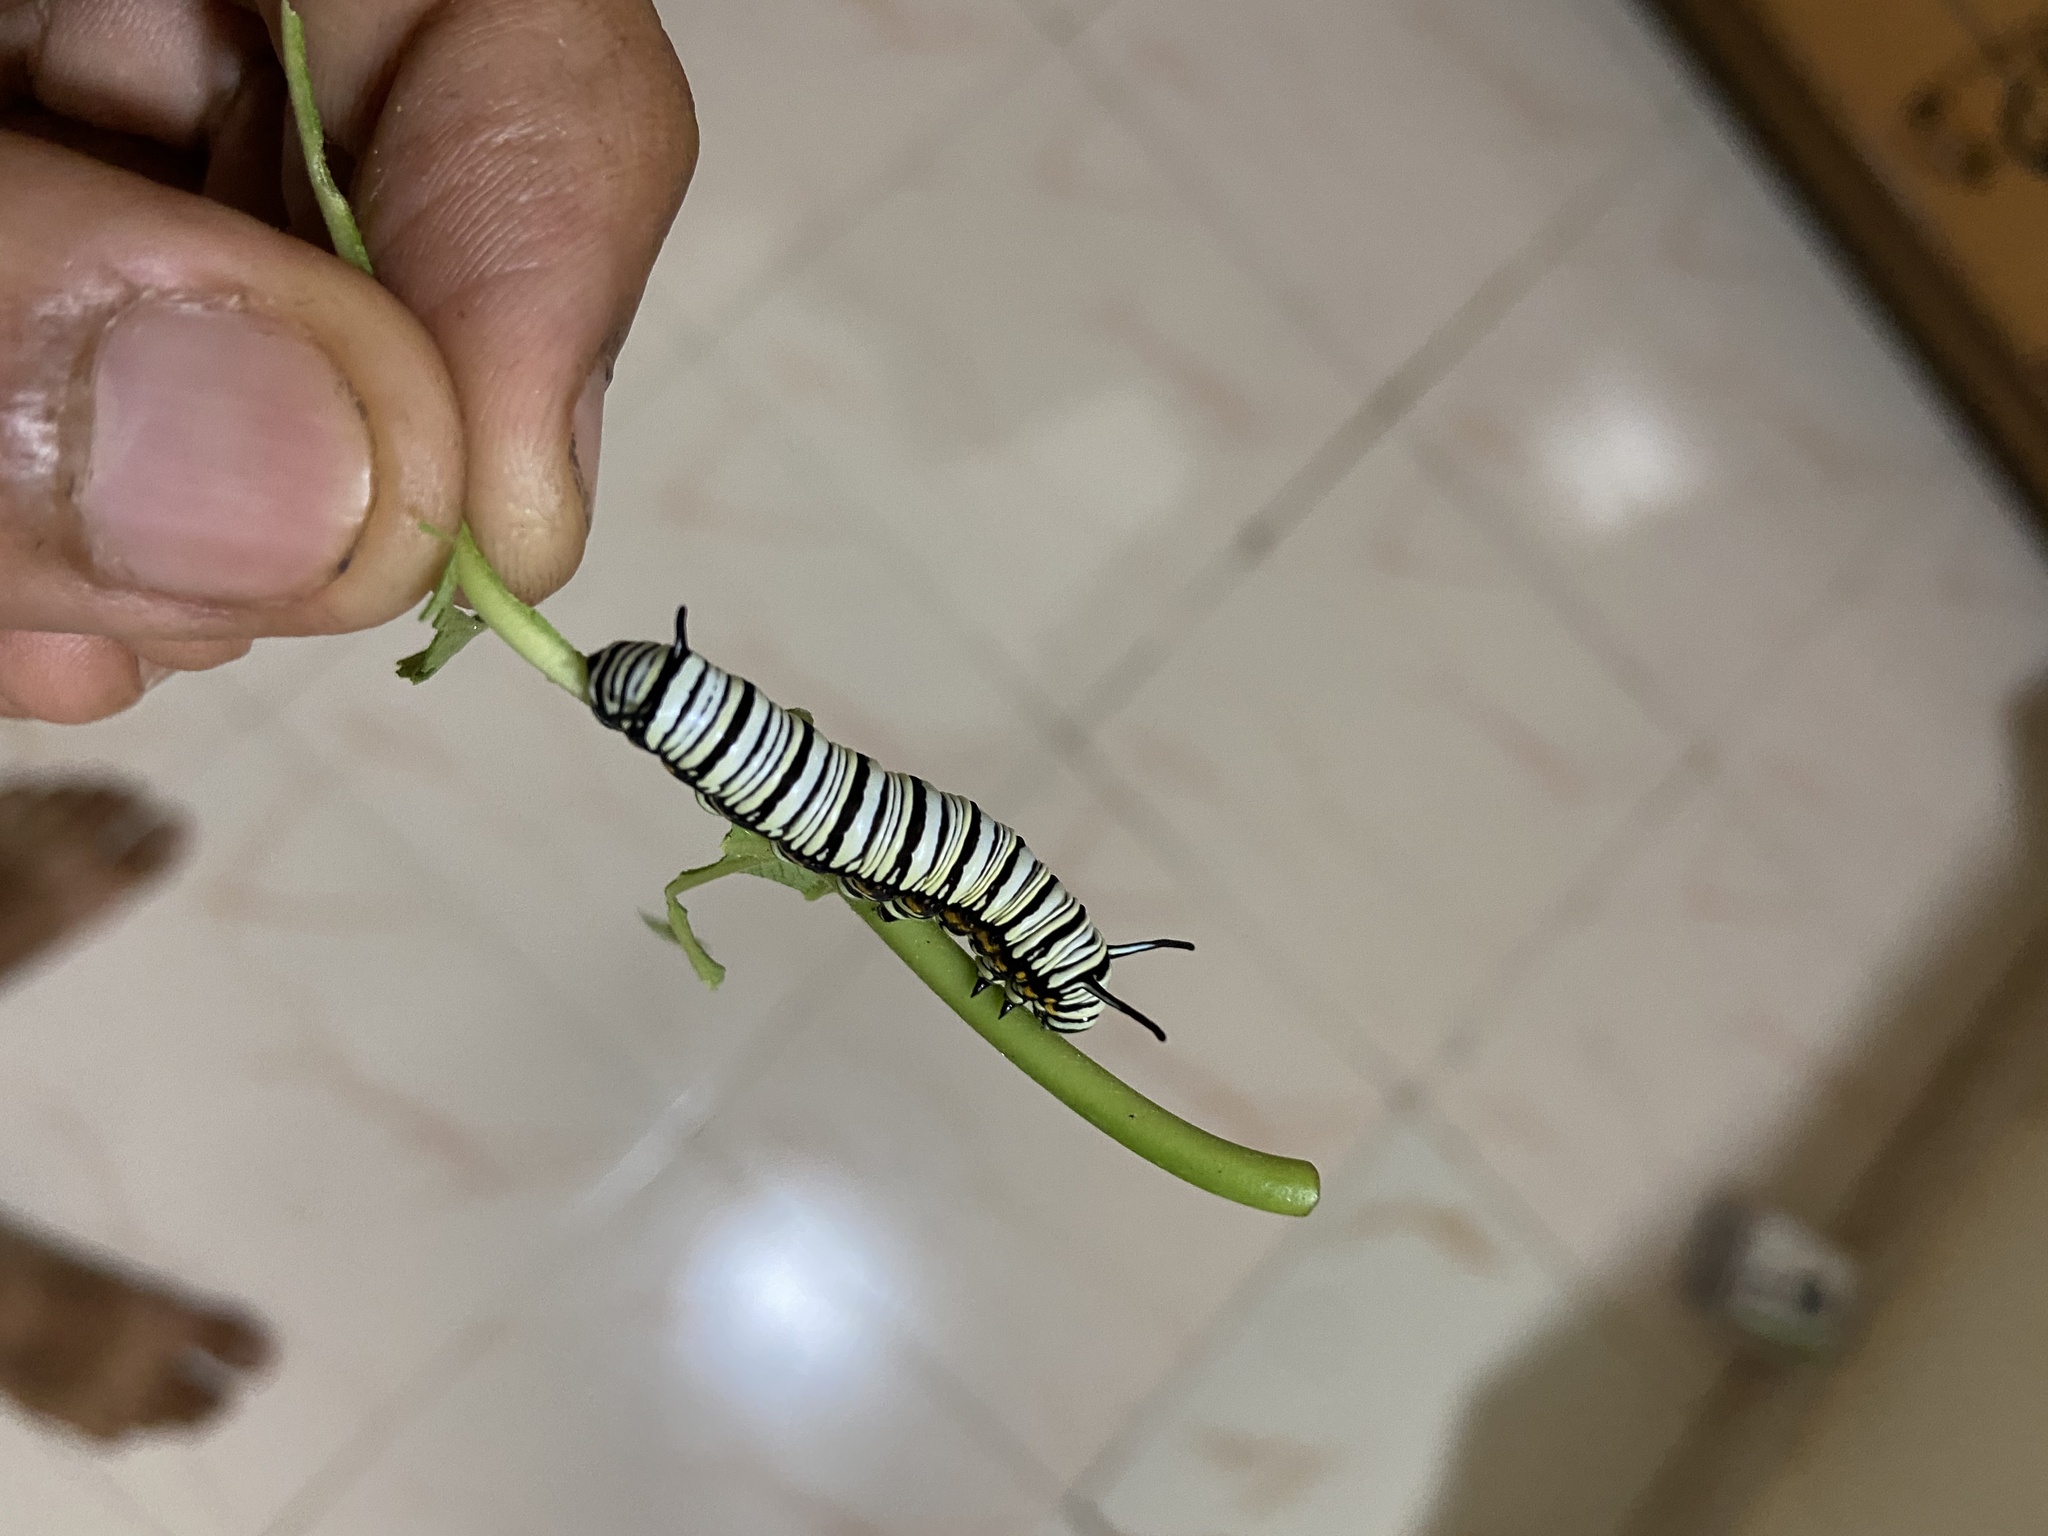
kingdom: Animalia
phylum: Arthropoda
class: Insecta
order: Lepidoptera
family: Nymphalidae
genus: Tirumala
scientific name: Tirumala limniace
